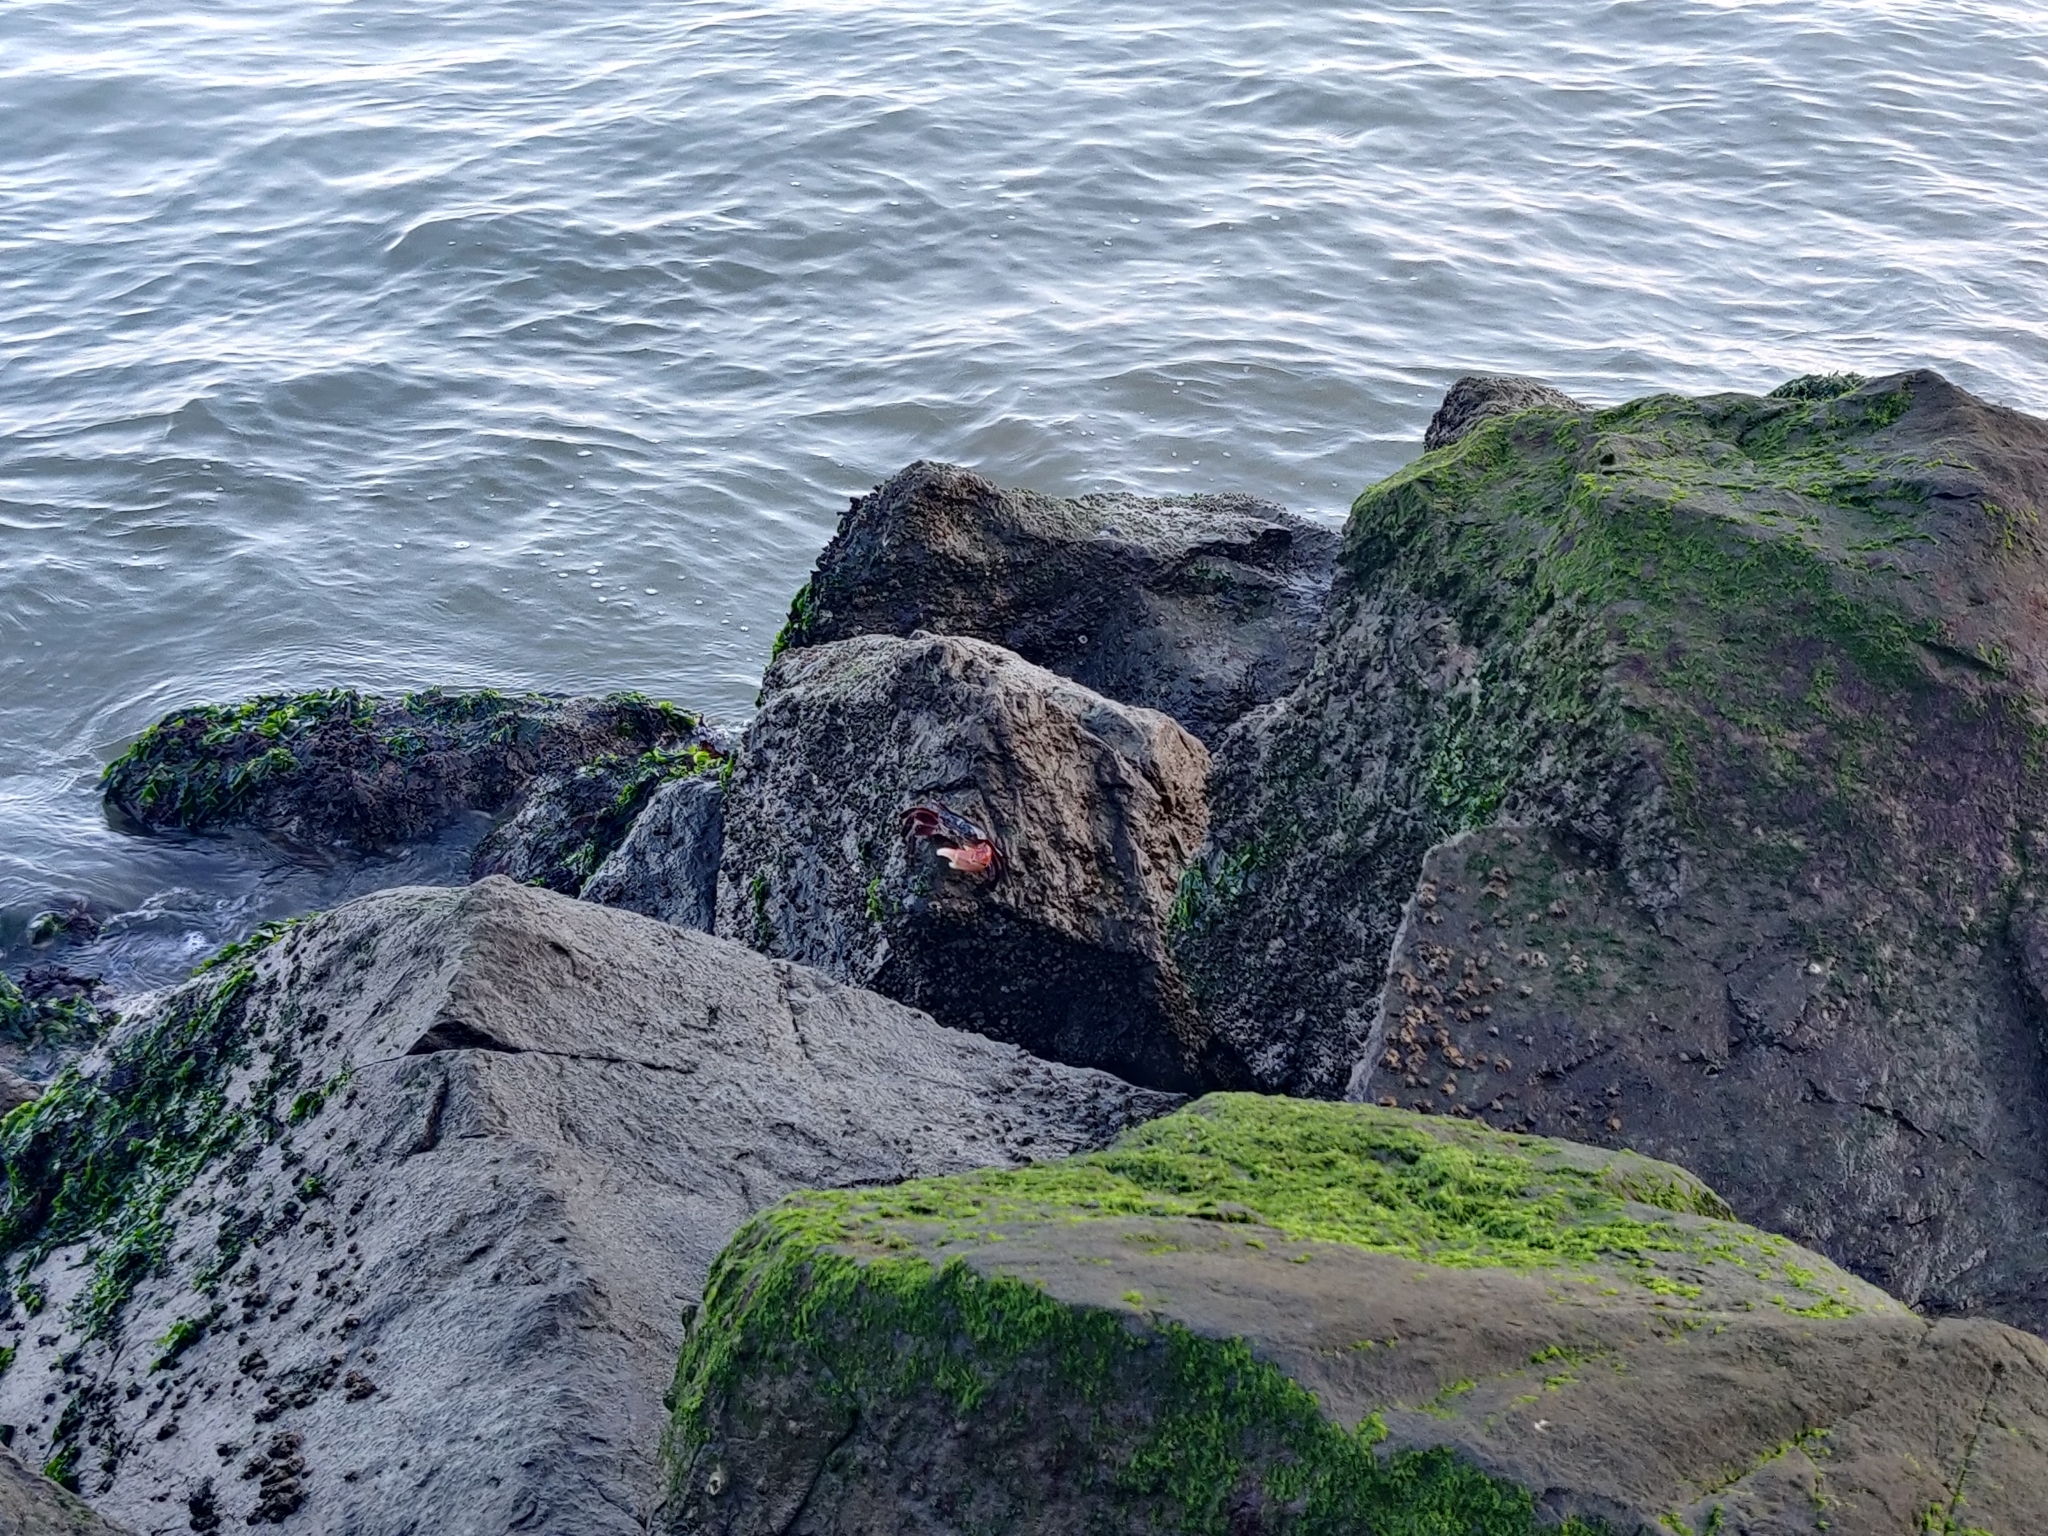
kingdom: Animalia
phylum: Arthropoda
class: Malacostraca
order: Decapoda
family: Grapsidae
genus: Pachygrapsus
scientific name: Pachygrapsus crassipes
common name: Striped shore crab
